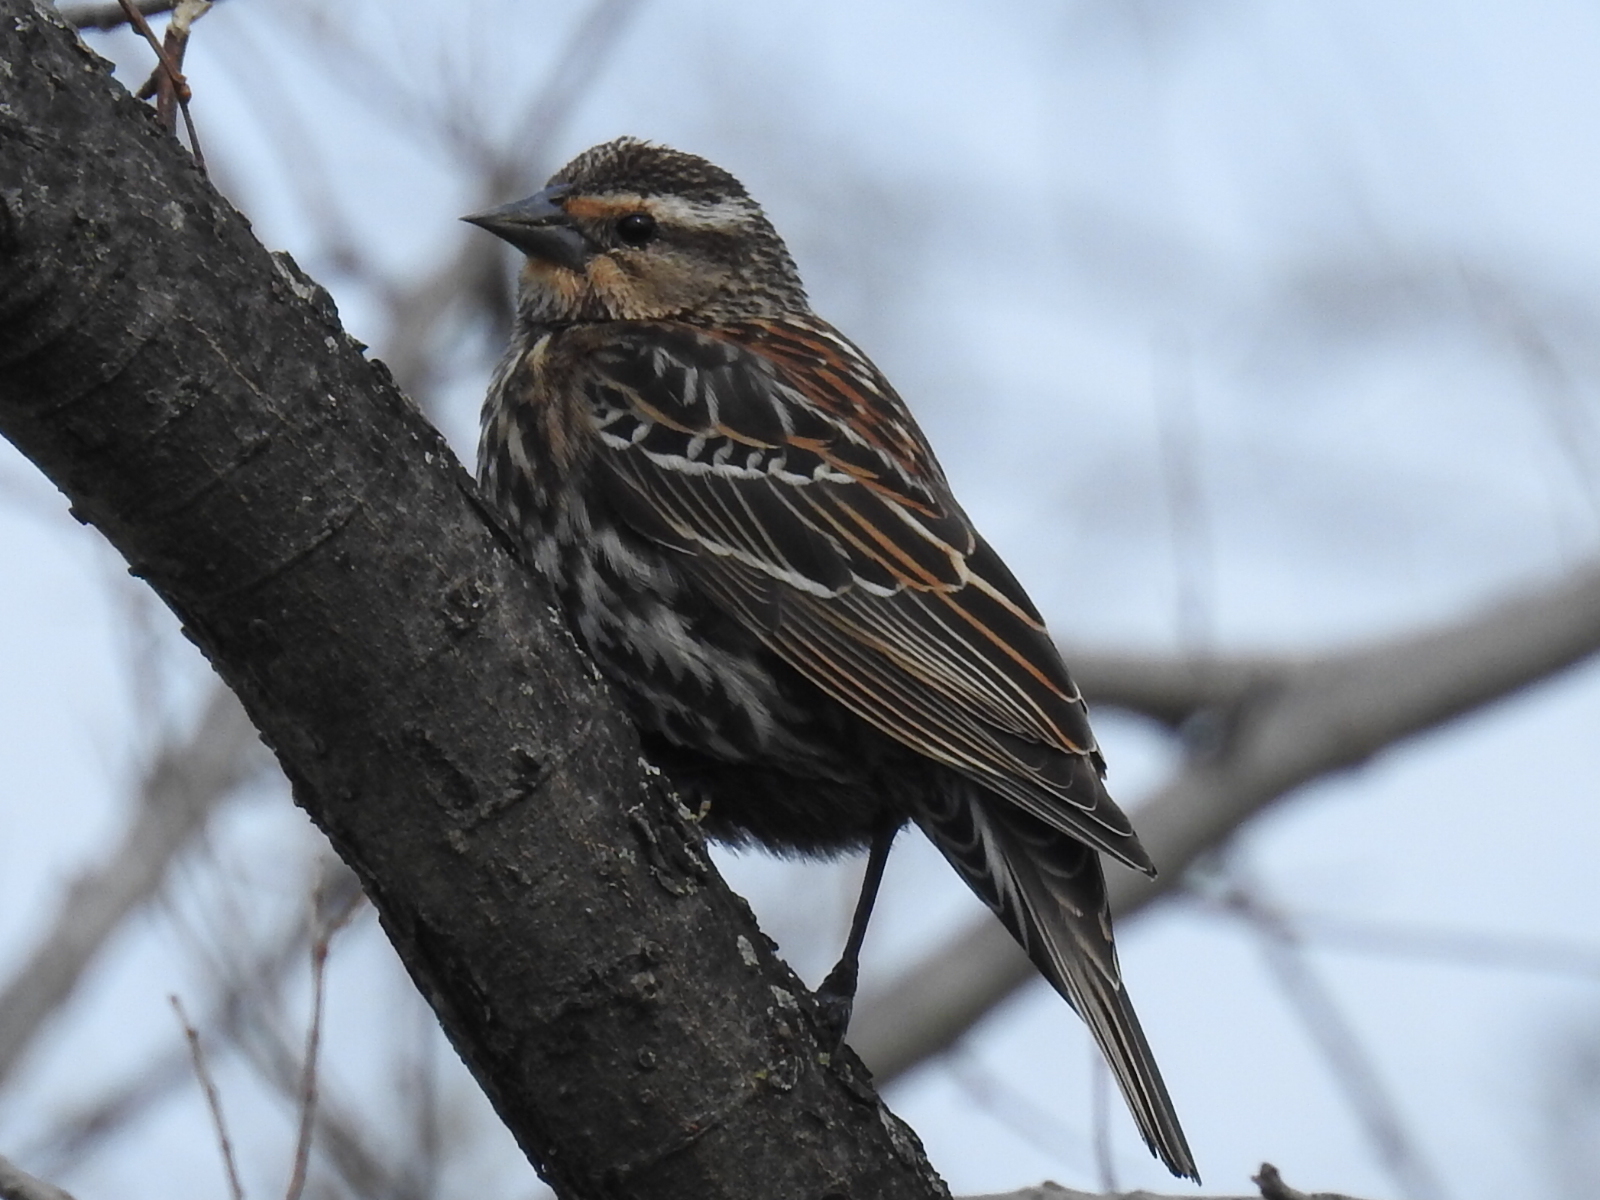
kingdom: Animalia
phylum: Chordata
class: Aves
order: Passeriformes
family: Icteridae
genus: Agelaius
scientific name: Agelaius phoeniceus
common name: Red-winged blackbird
